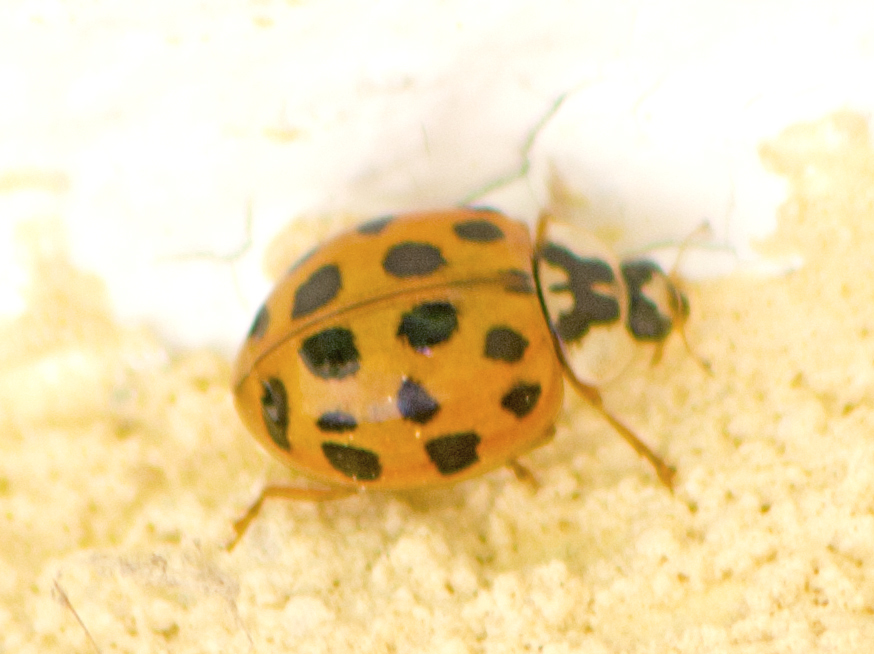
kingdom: Animalia
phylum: Arthropoda
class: Insecta
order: Coleoptera
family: Coccinellidae
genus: Harmonia
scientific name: Harmonia axyridis
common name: Harlequin ladybird
